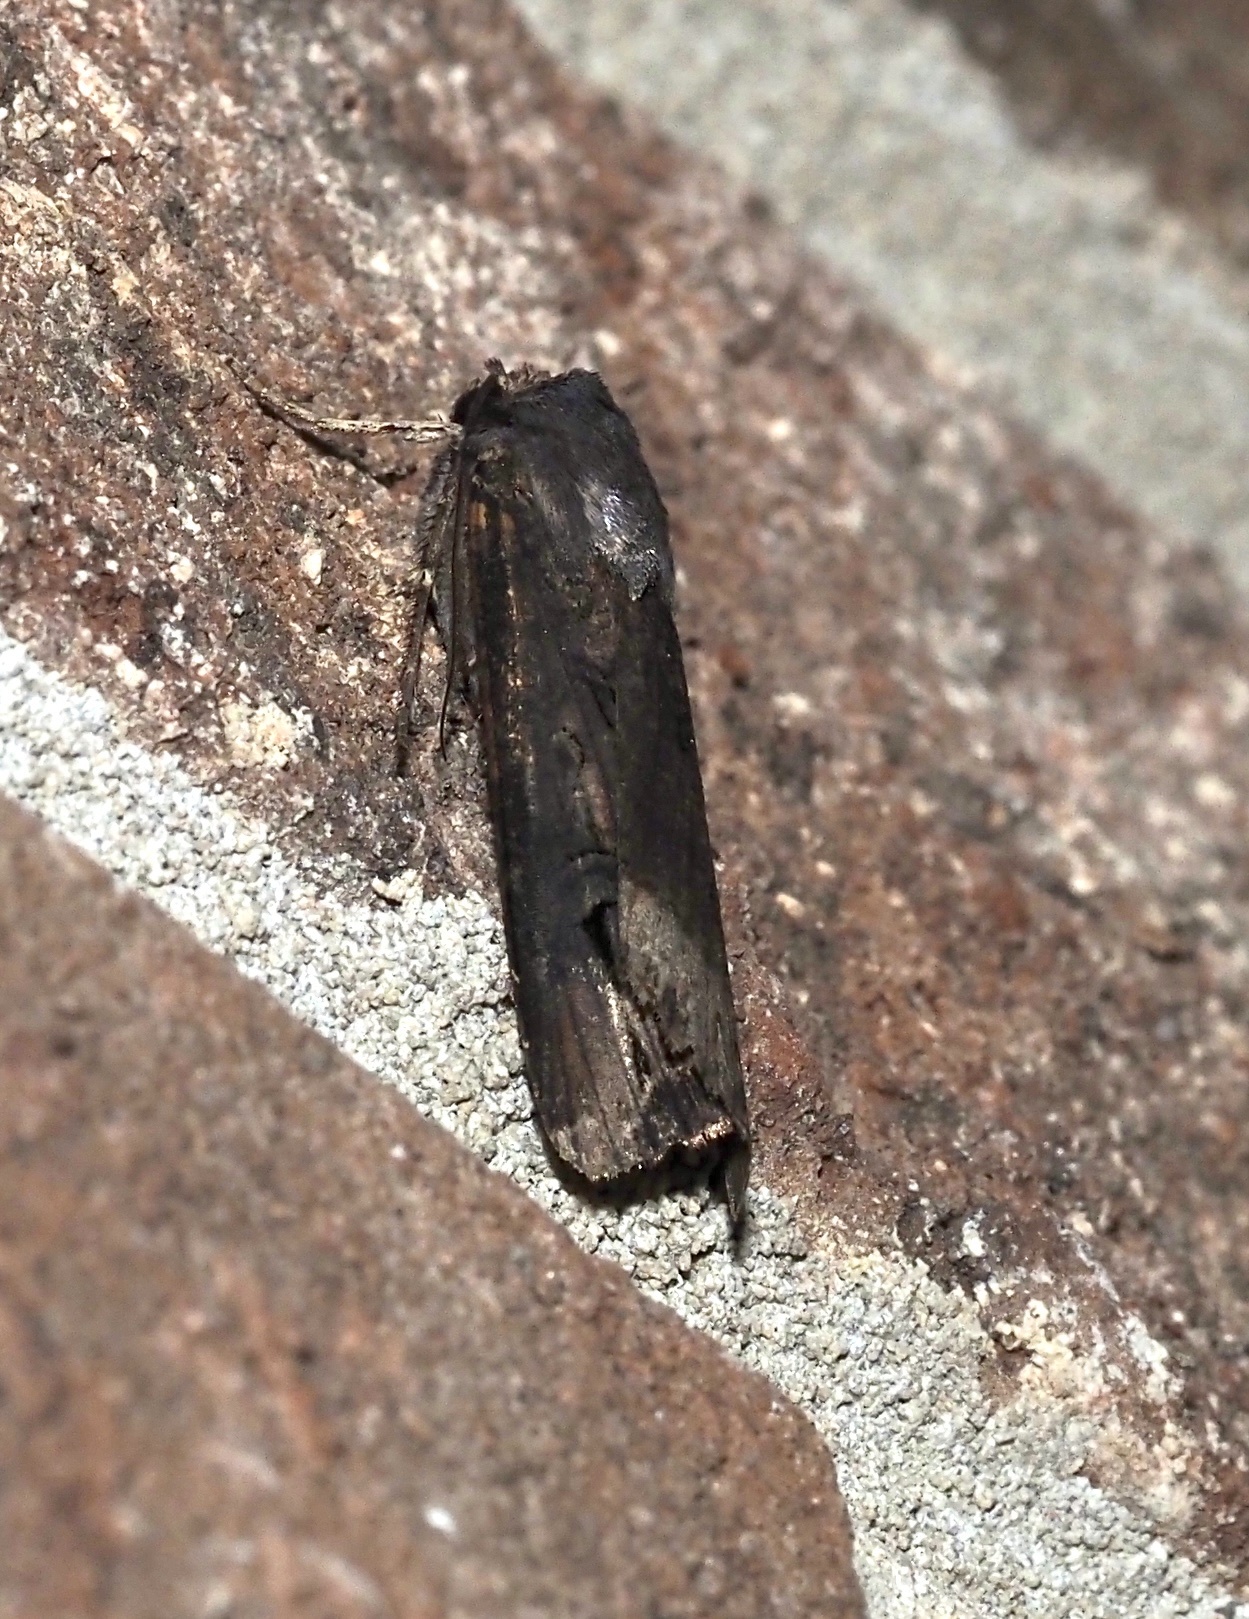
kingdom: Animalia
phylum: Arthropoda
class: Insecta
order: Lepidoptera
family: Noctuidae
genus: Agrotis
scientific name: Agrotis ipsilon
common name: Dark sword-grass
